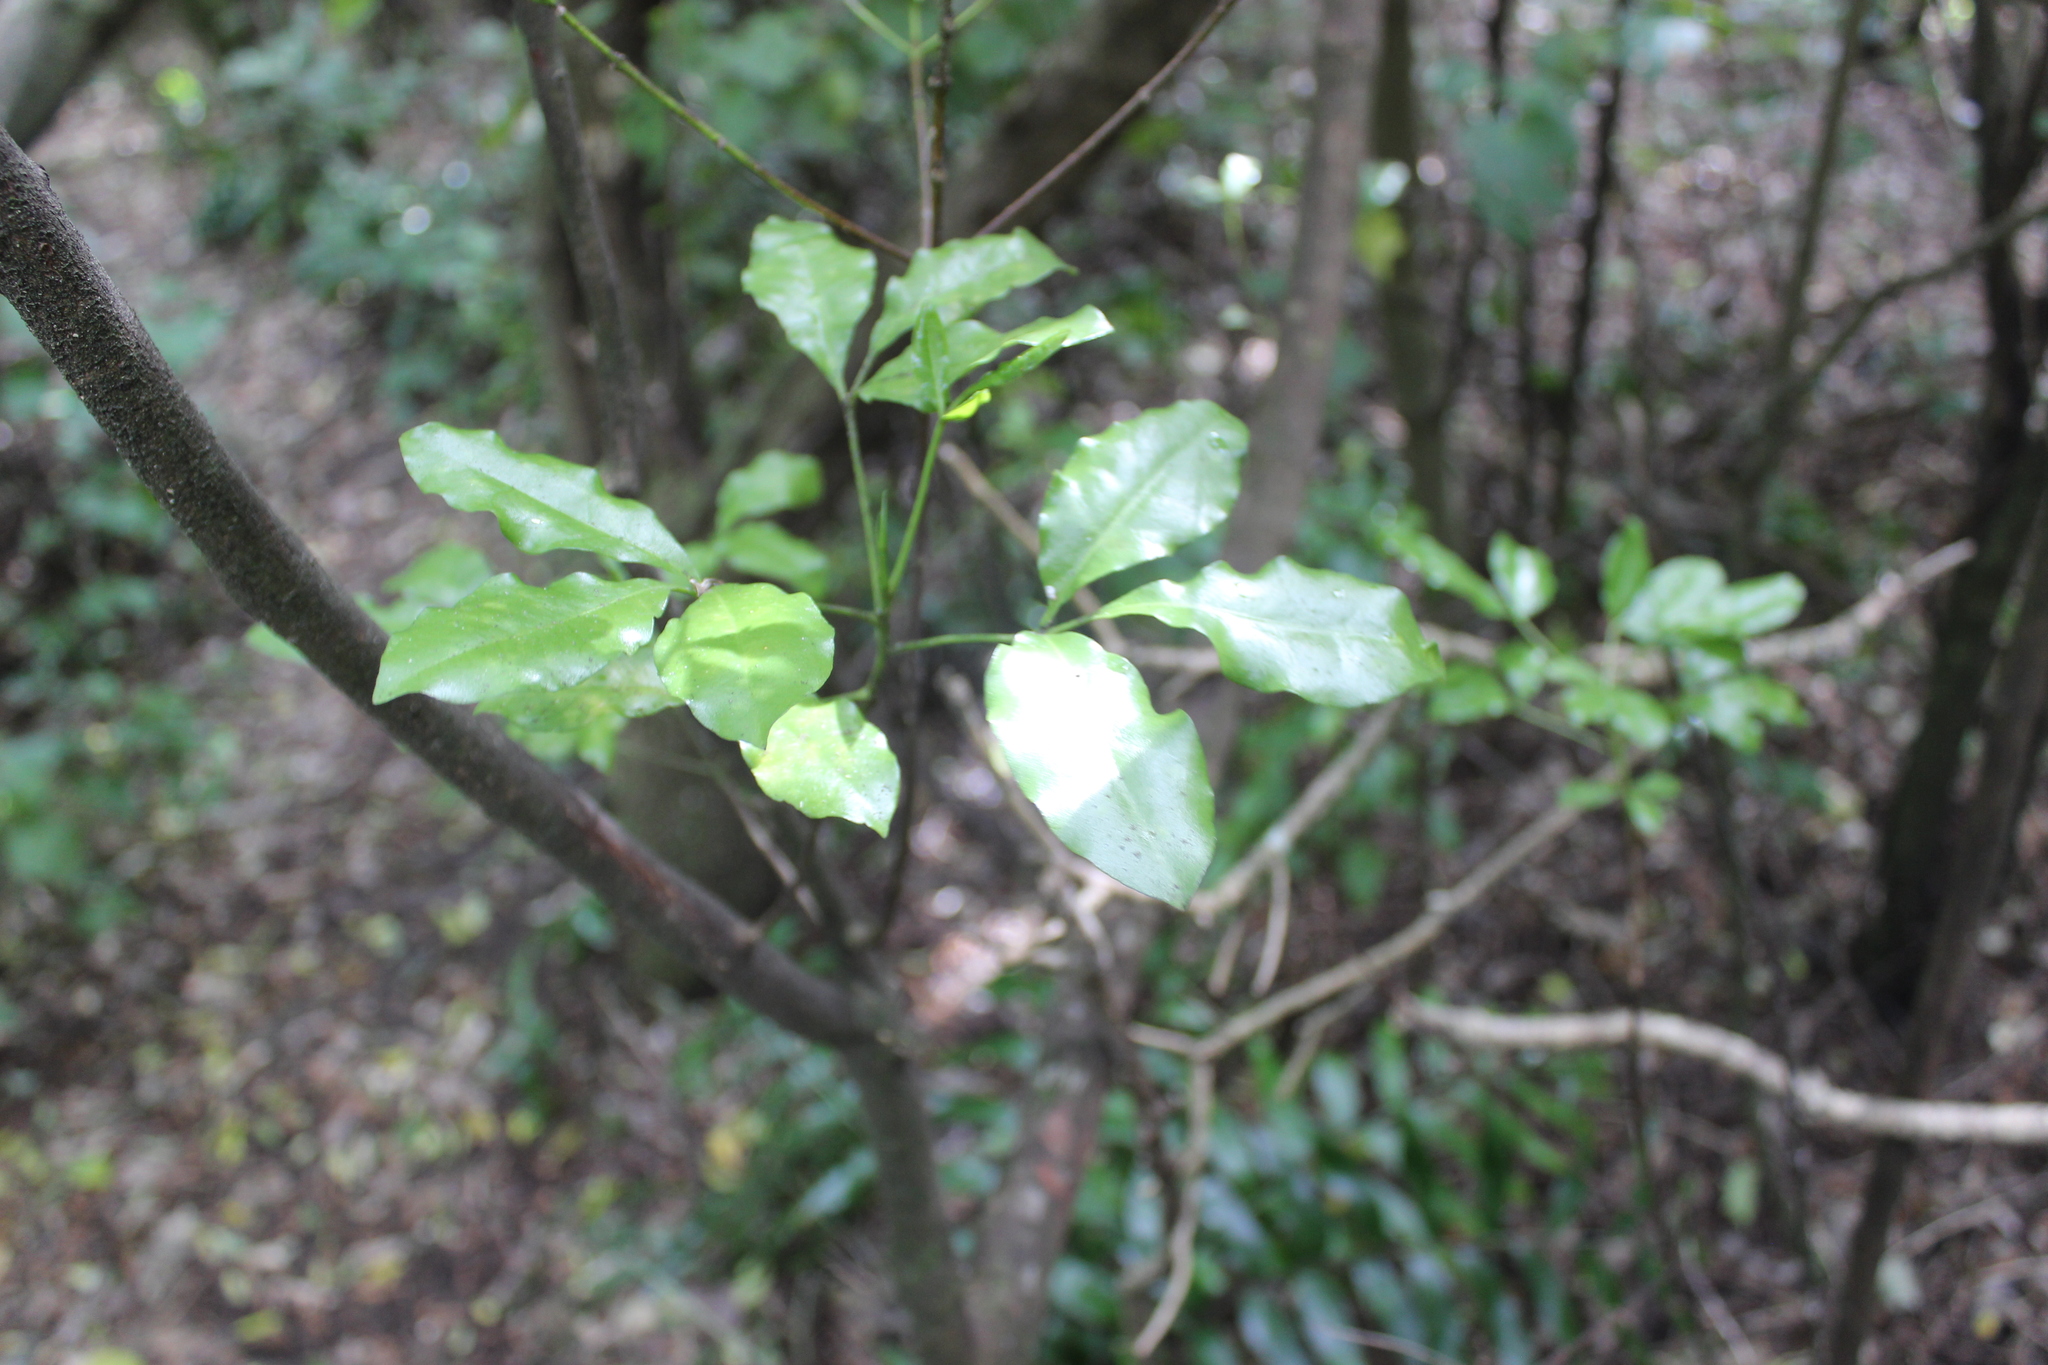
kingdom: Plantae
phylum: Tracheophyta
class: Magnoliopsida
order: Sapindales
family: Rutaceae
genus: Melicope
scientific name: Melicope ternata
